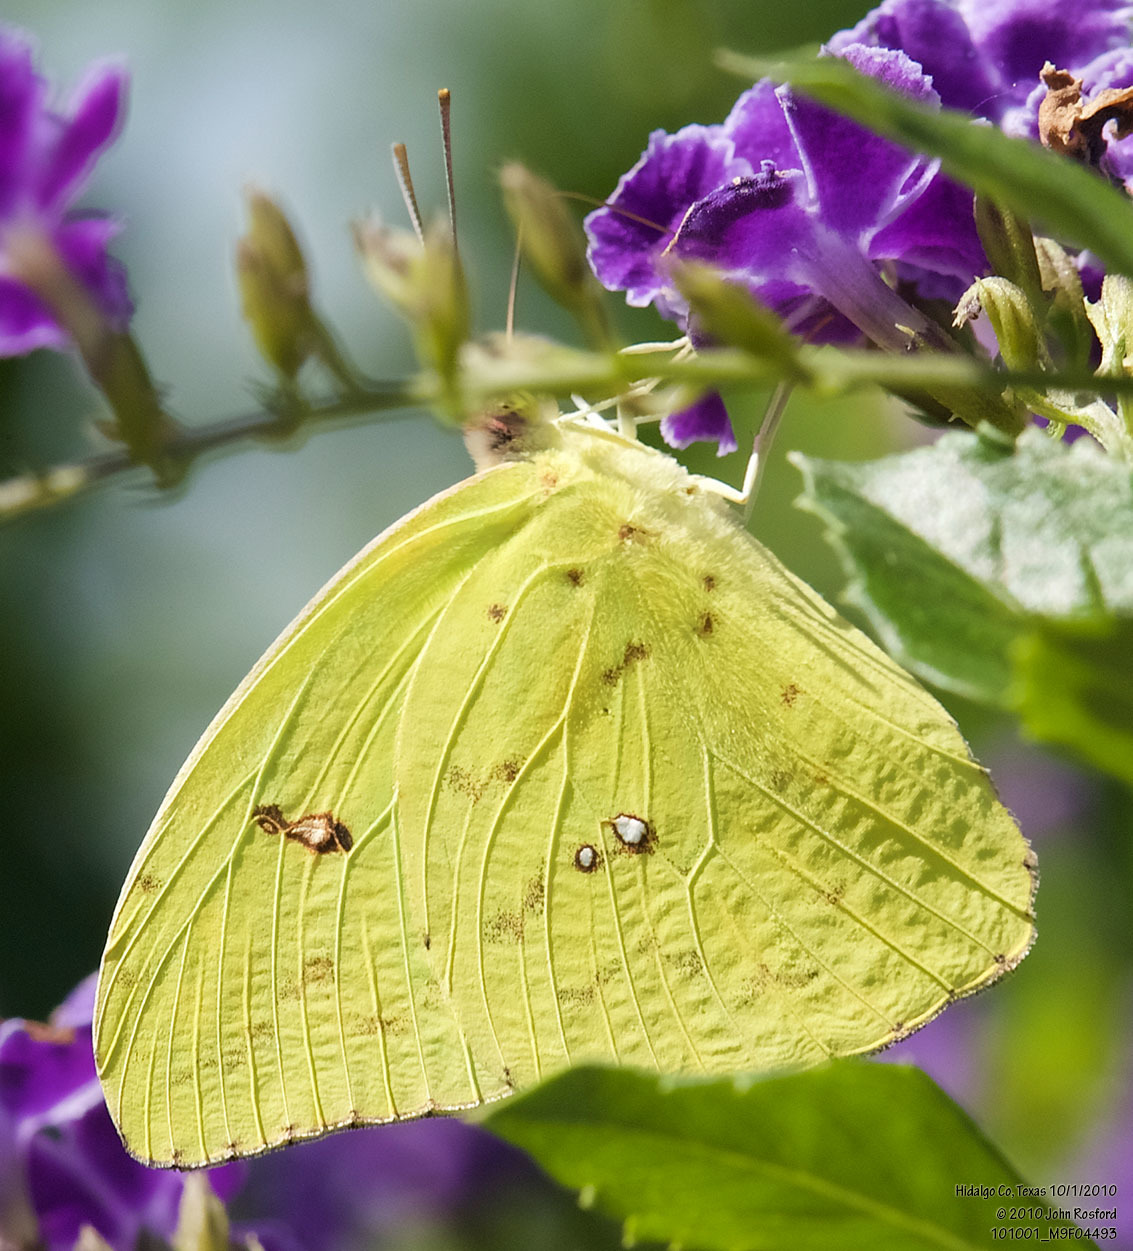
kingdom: Animalia
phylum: Arthropoda
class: Insecta
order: Lepidoptera
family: Pieridae
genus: Phoebis
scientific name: Phoebis sennae
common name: Cloudless sulphur
